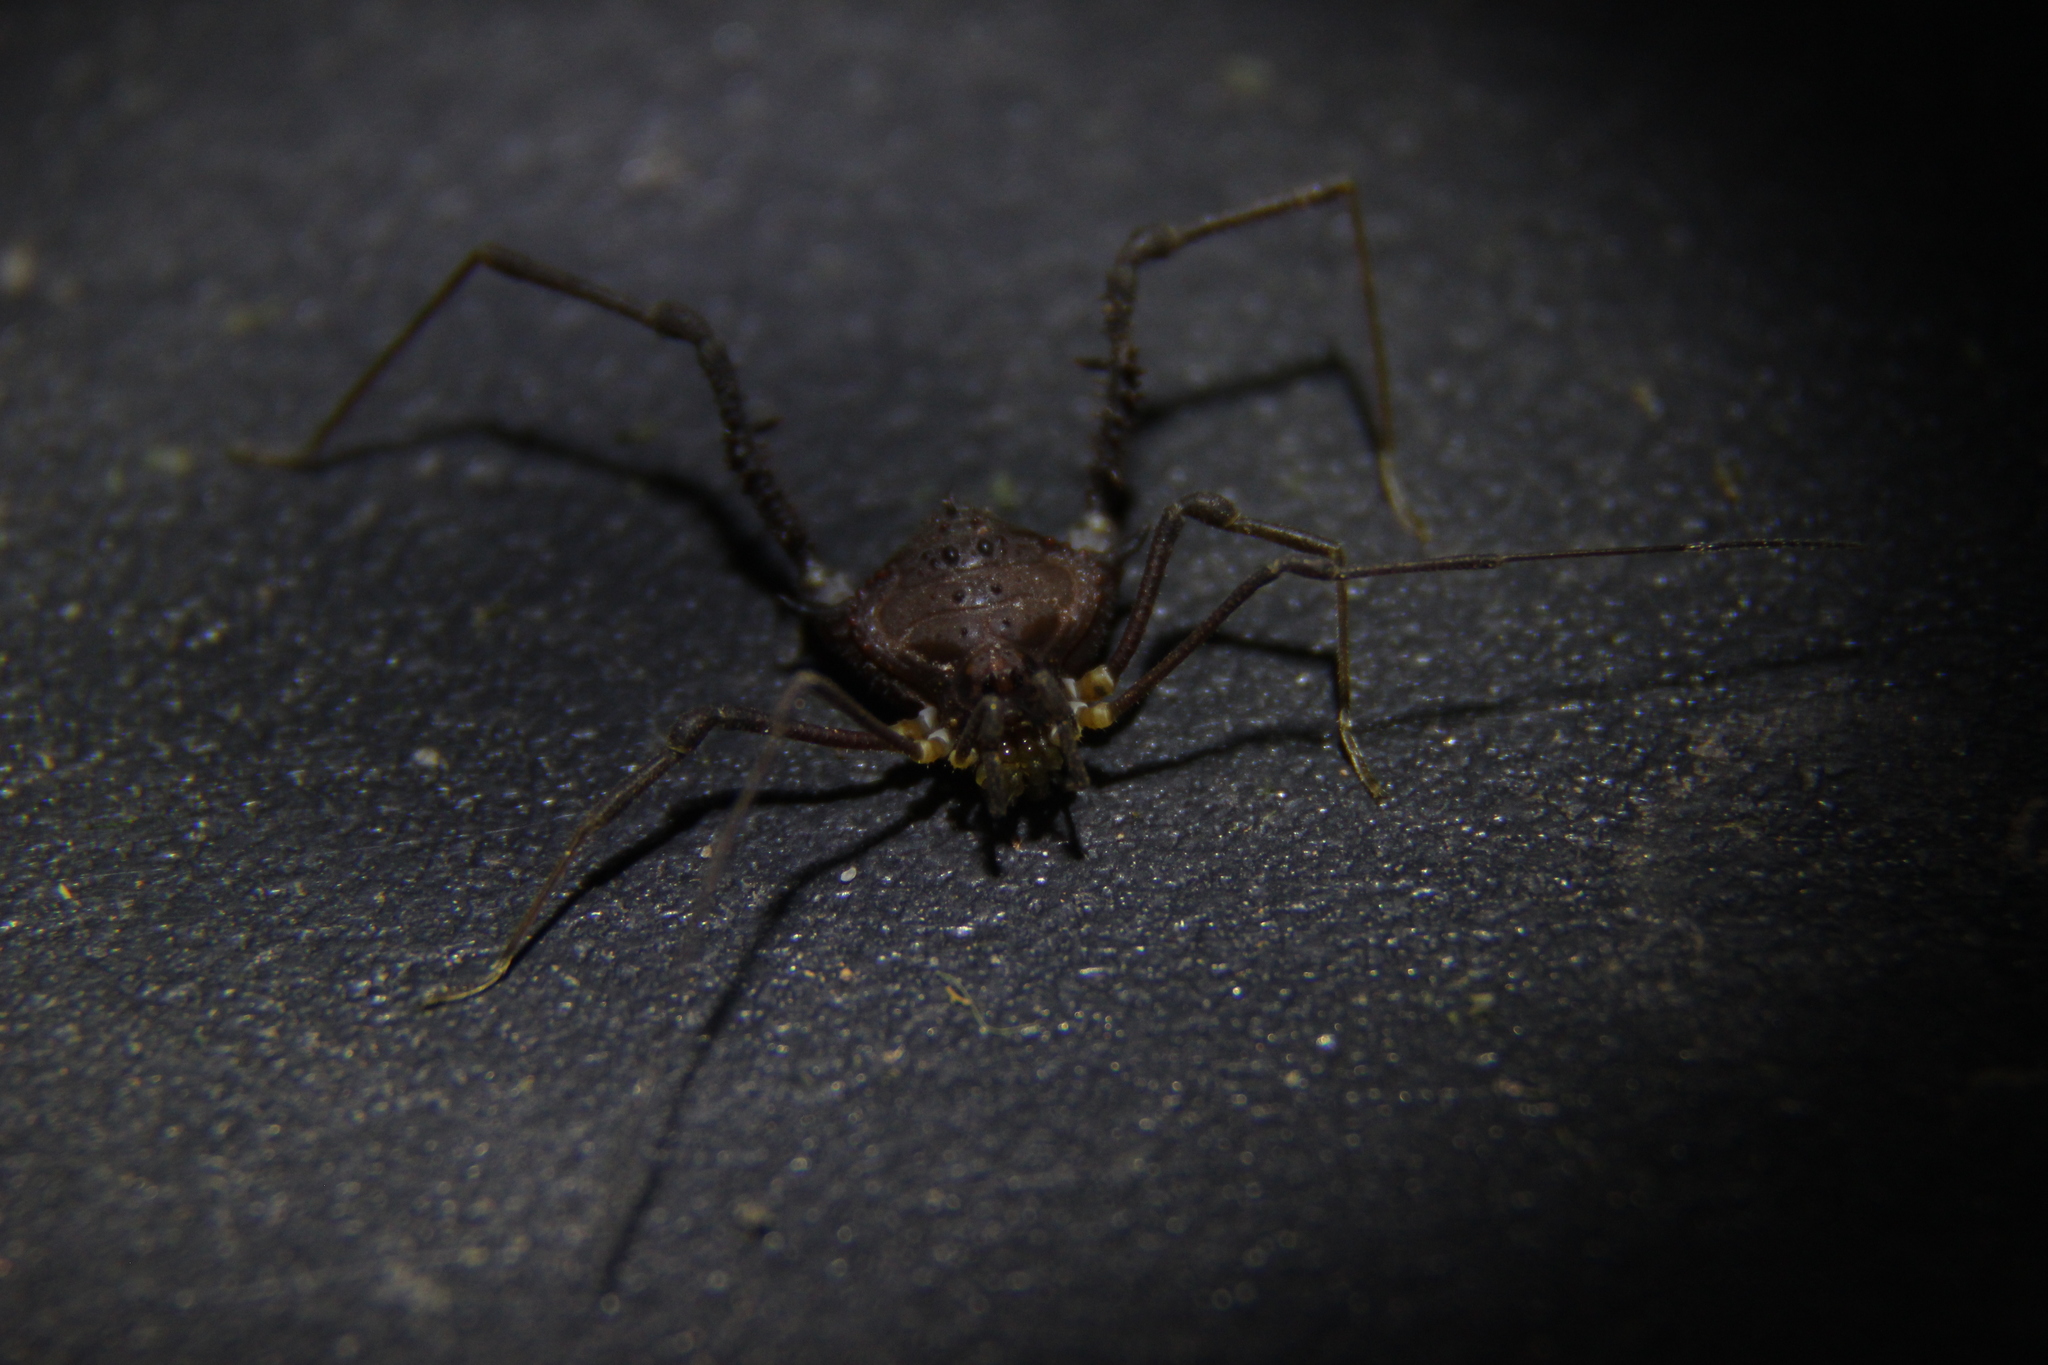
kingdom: Animalia
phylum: Arthropoda
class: Arachnida
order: Opiliones
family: Gonyleptidae
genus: Mischonyx
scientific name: Mischonyx squalidus
